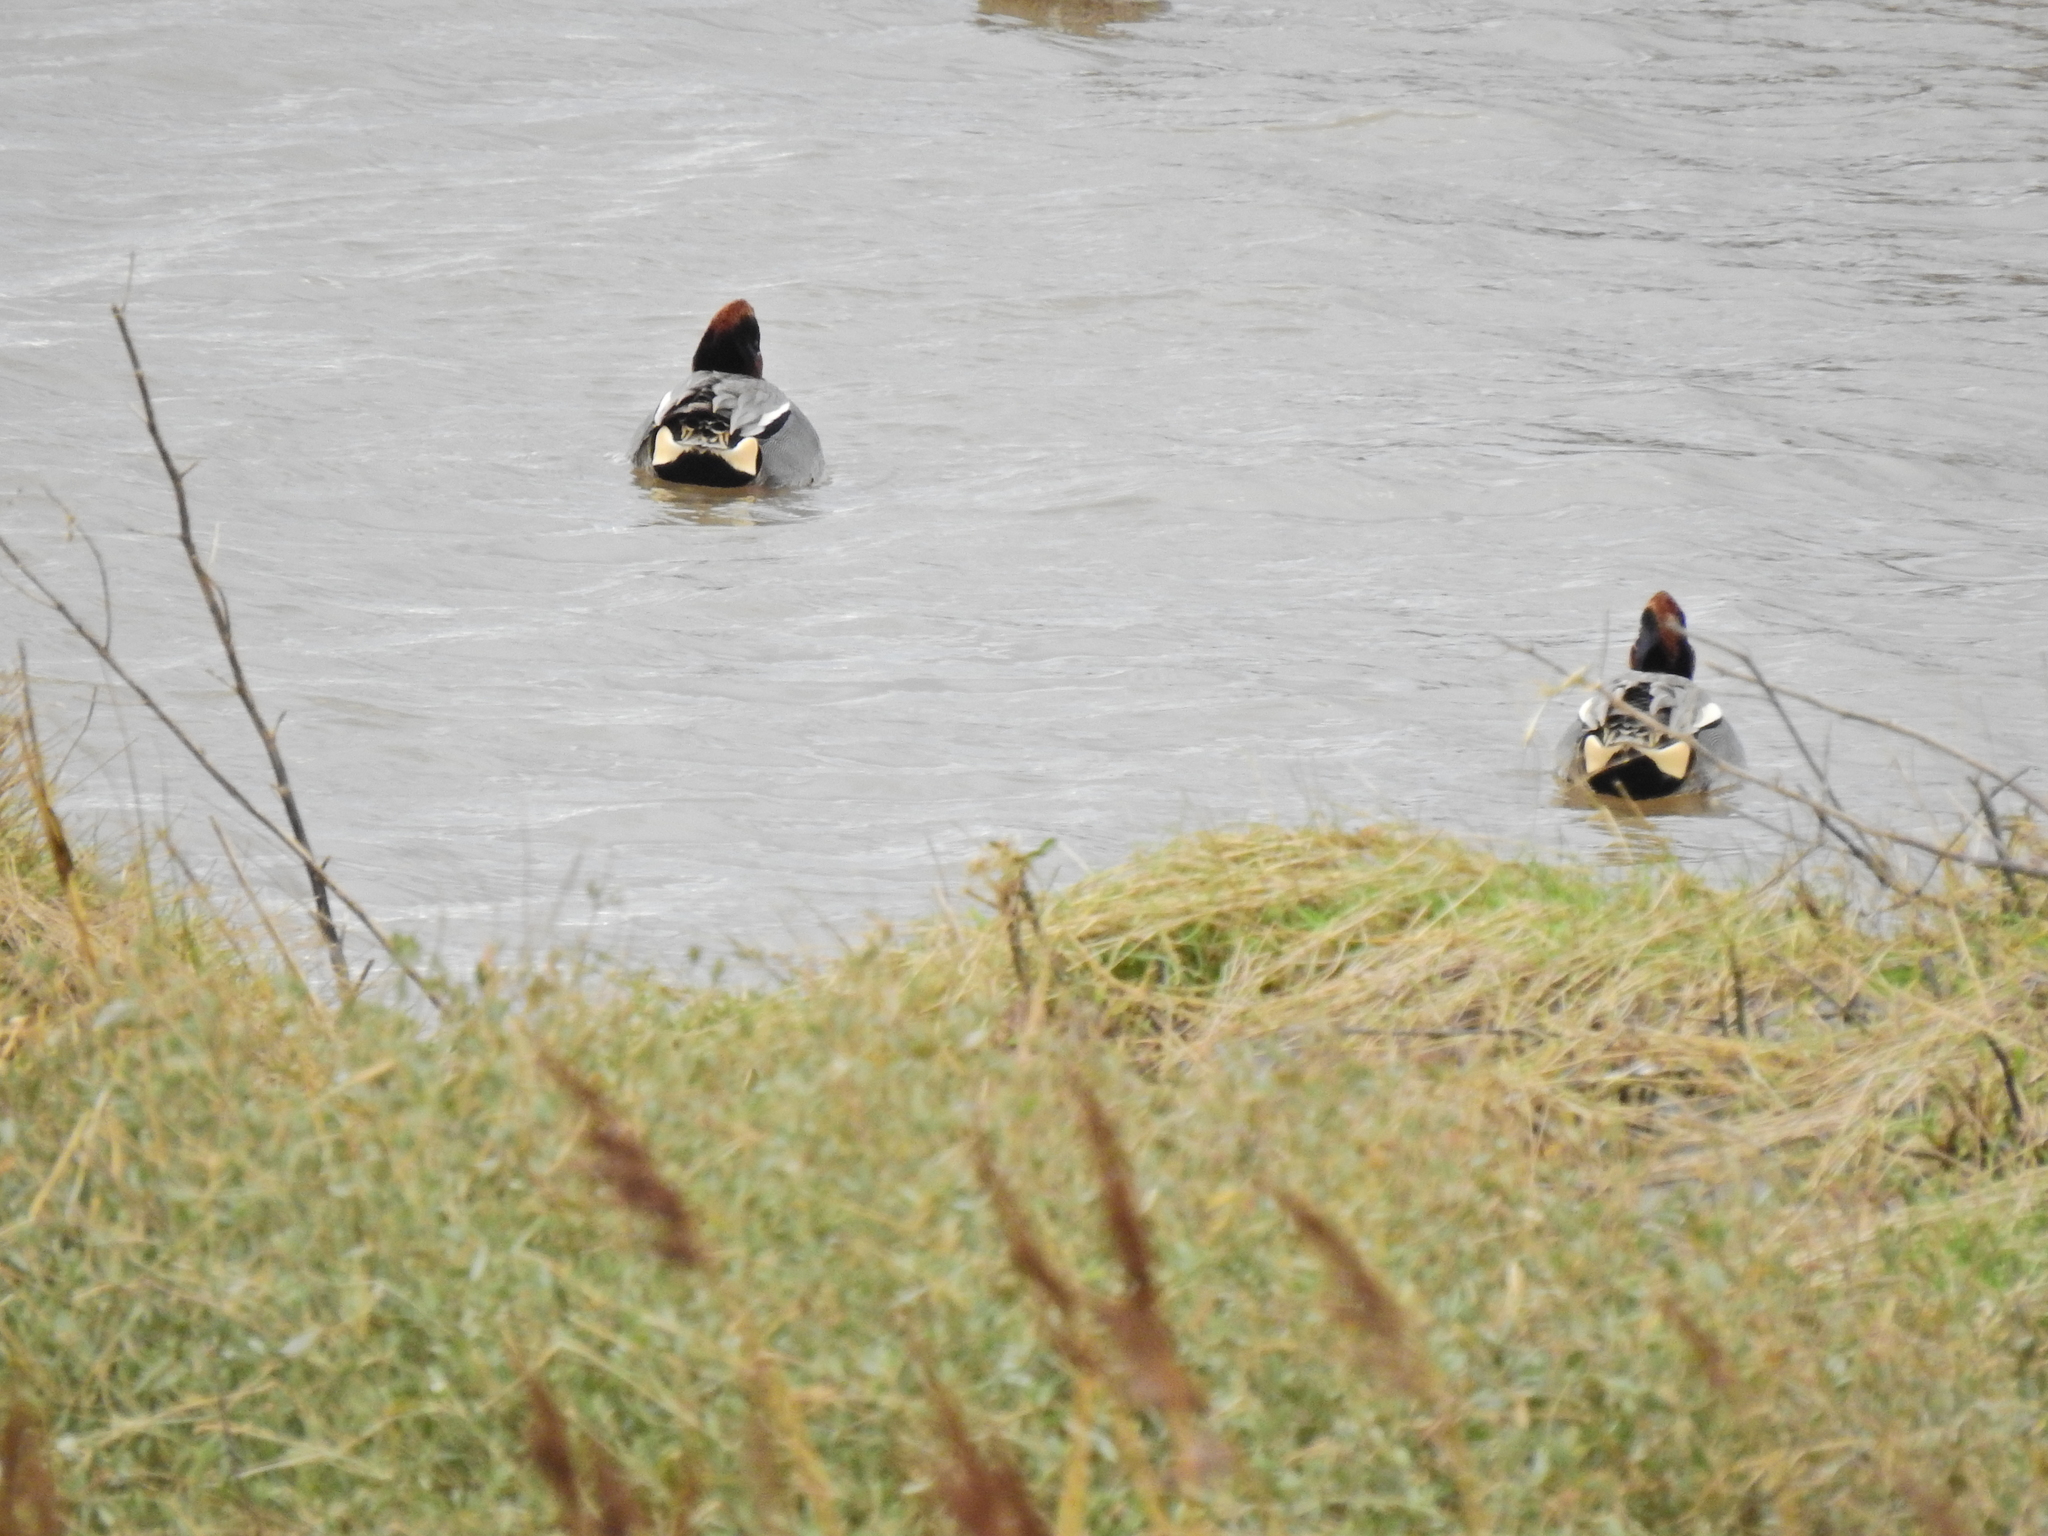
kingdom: Animalia
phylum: Chordata
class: Aves
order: Anseriformes
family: Anatidae
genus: Anas
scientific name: Anas crecca
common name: Eurasian teal
